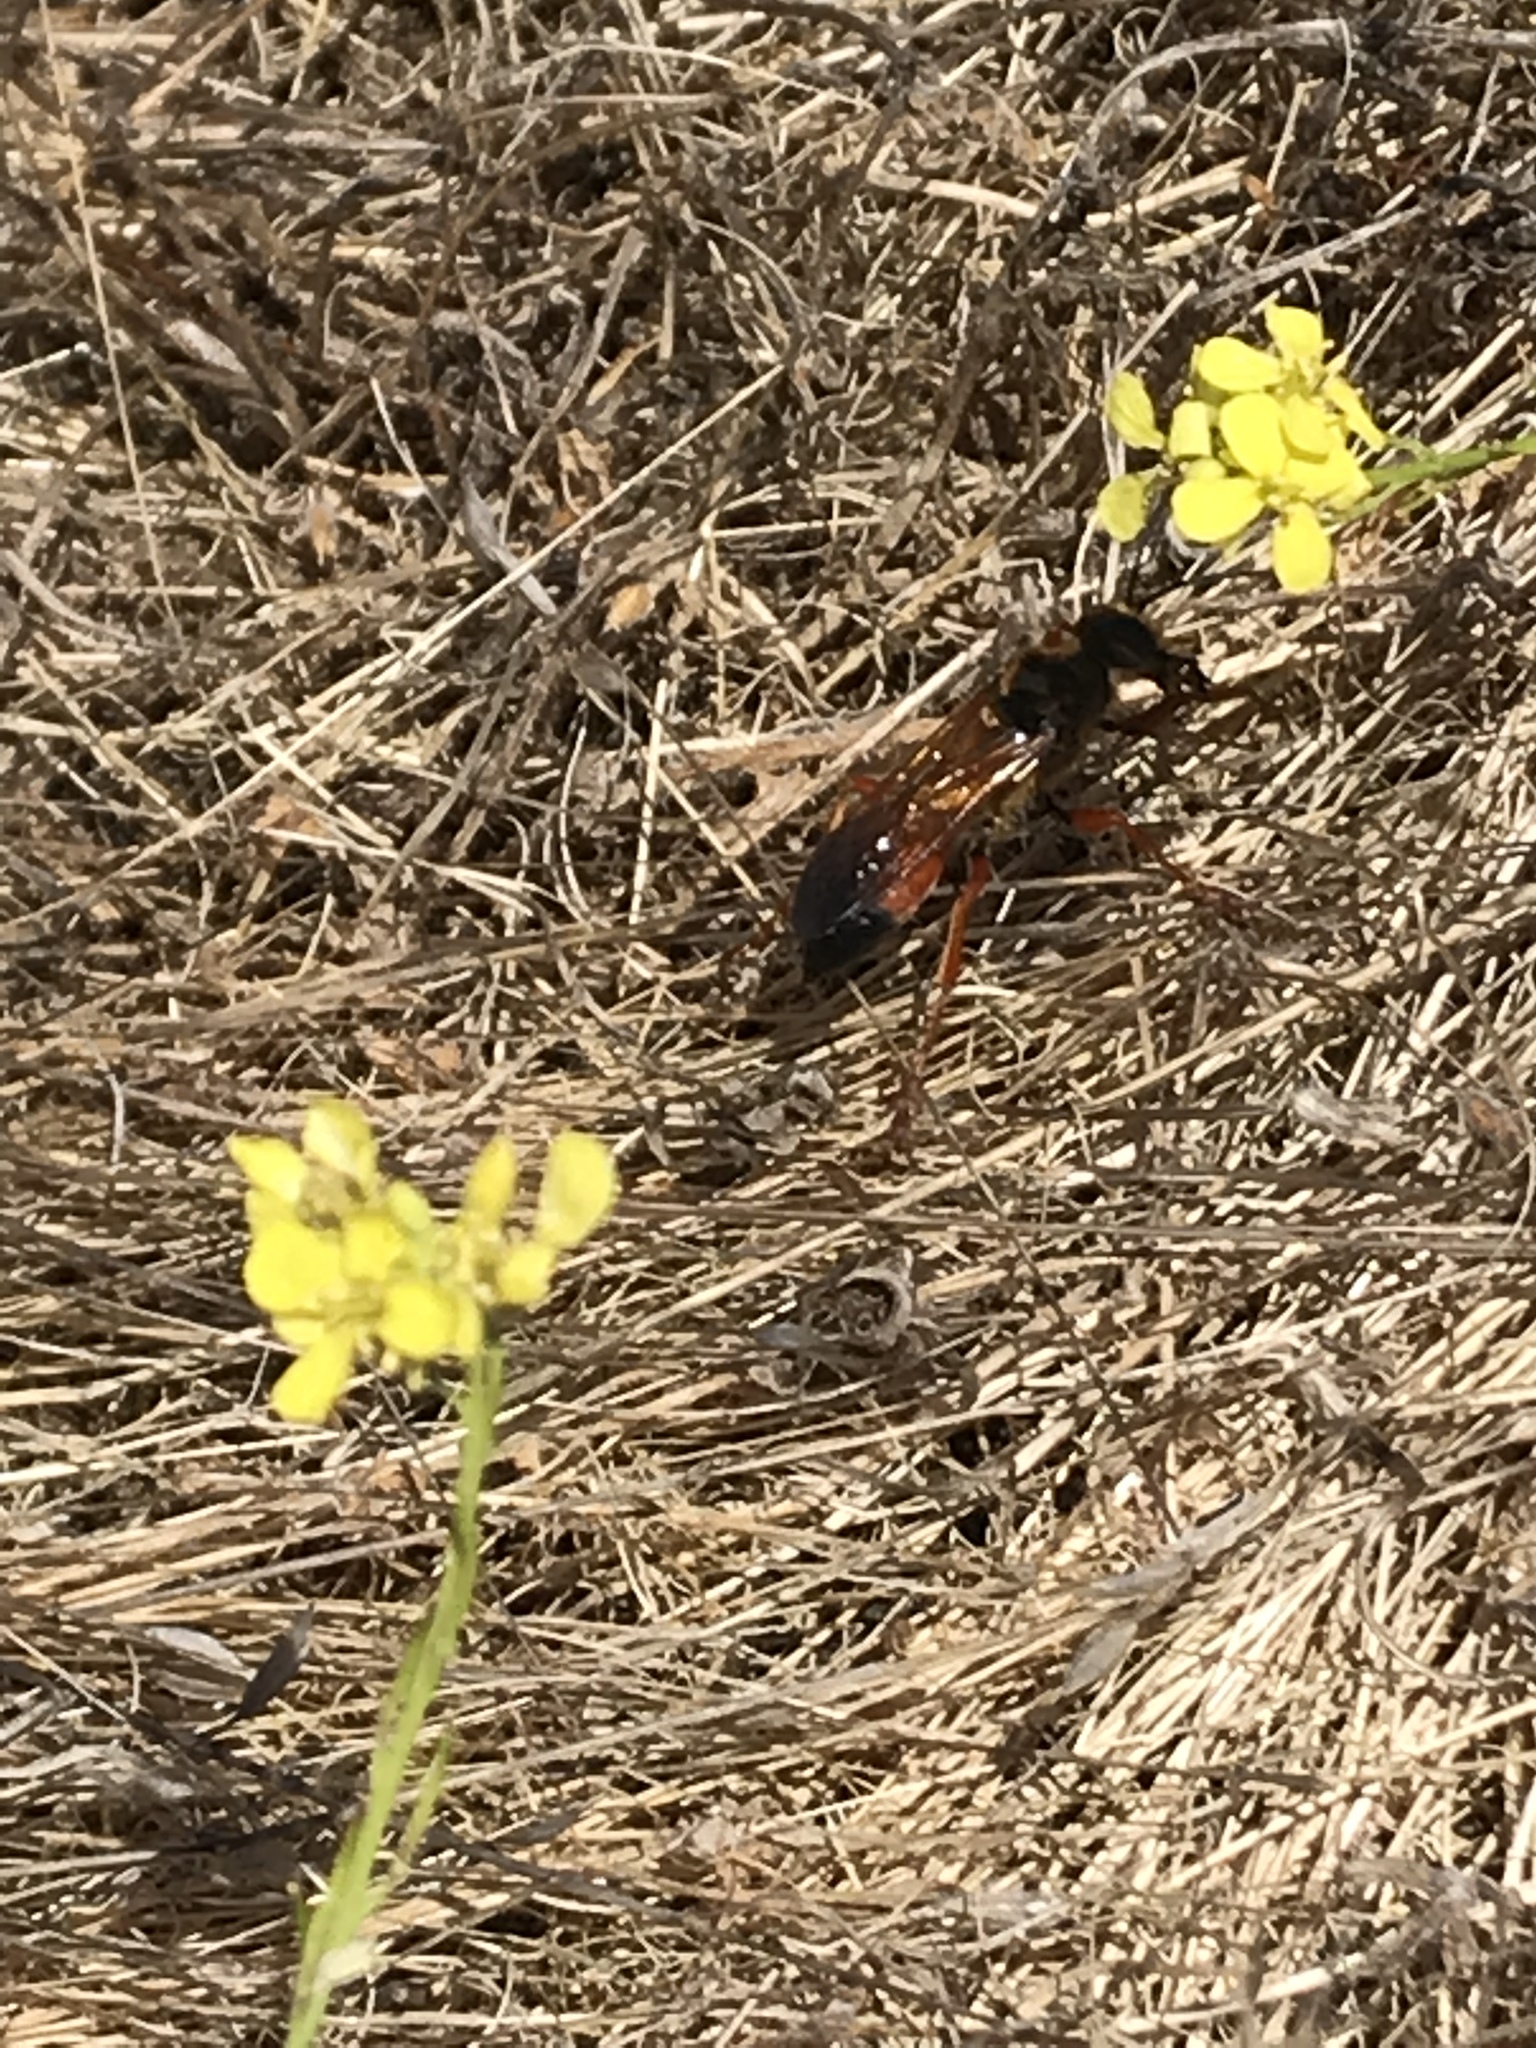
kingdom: Animalia
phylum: Arthropoda
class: Insecta
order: Hymenoptera
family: Sphecidae
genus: Sphex
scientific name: Sphex ichneumoneus
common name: Great golden digger wasp
